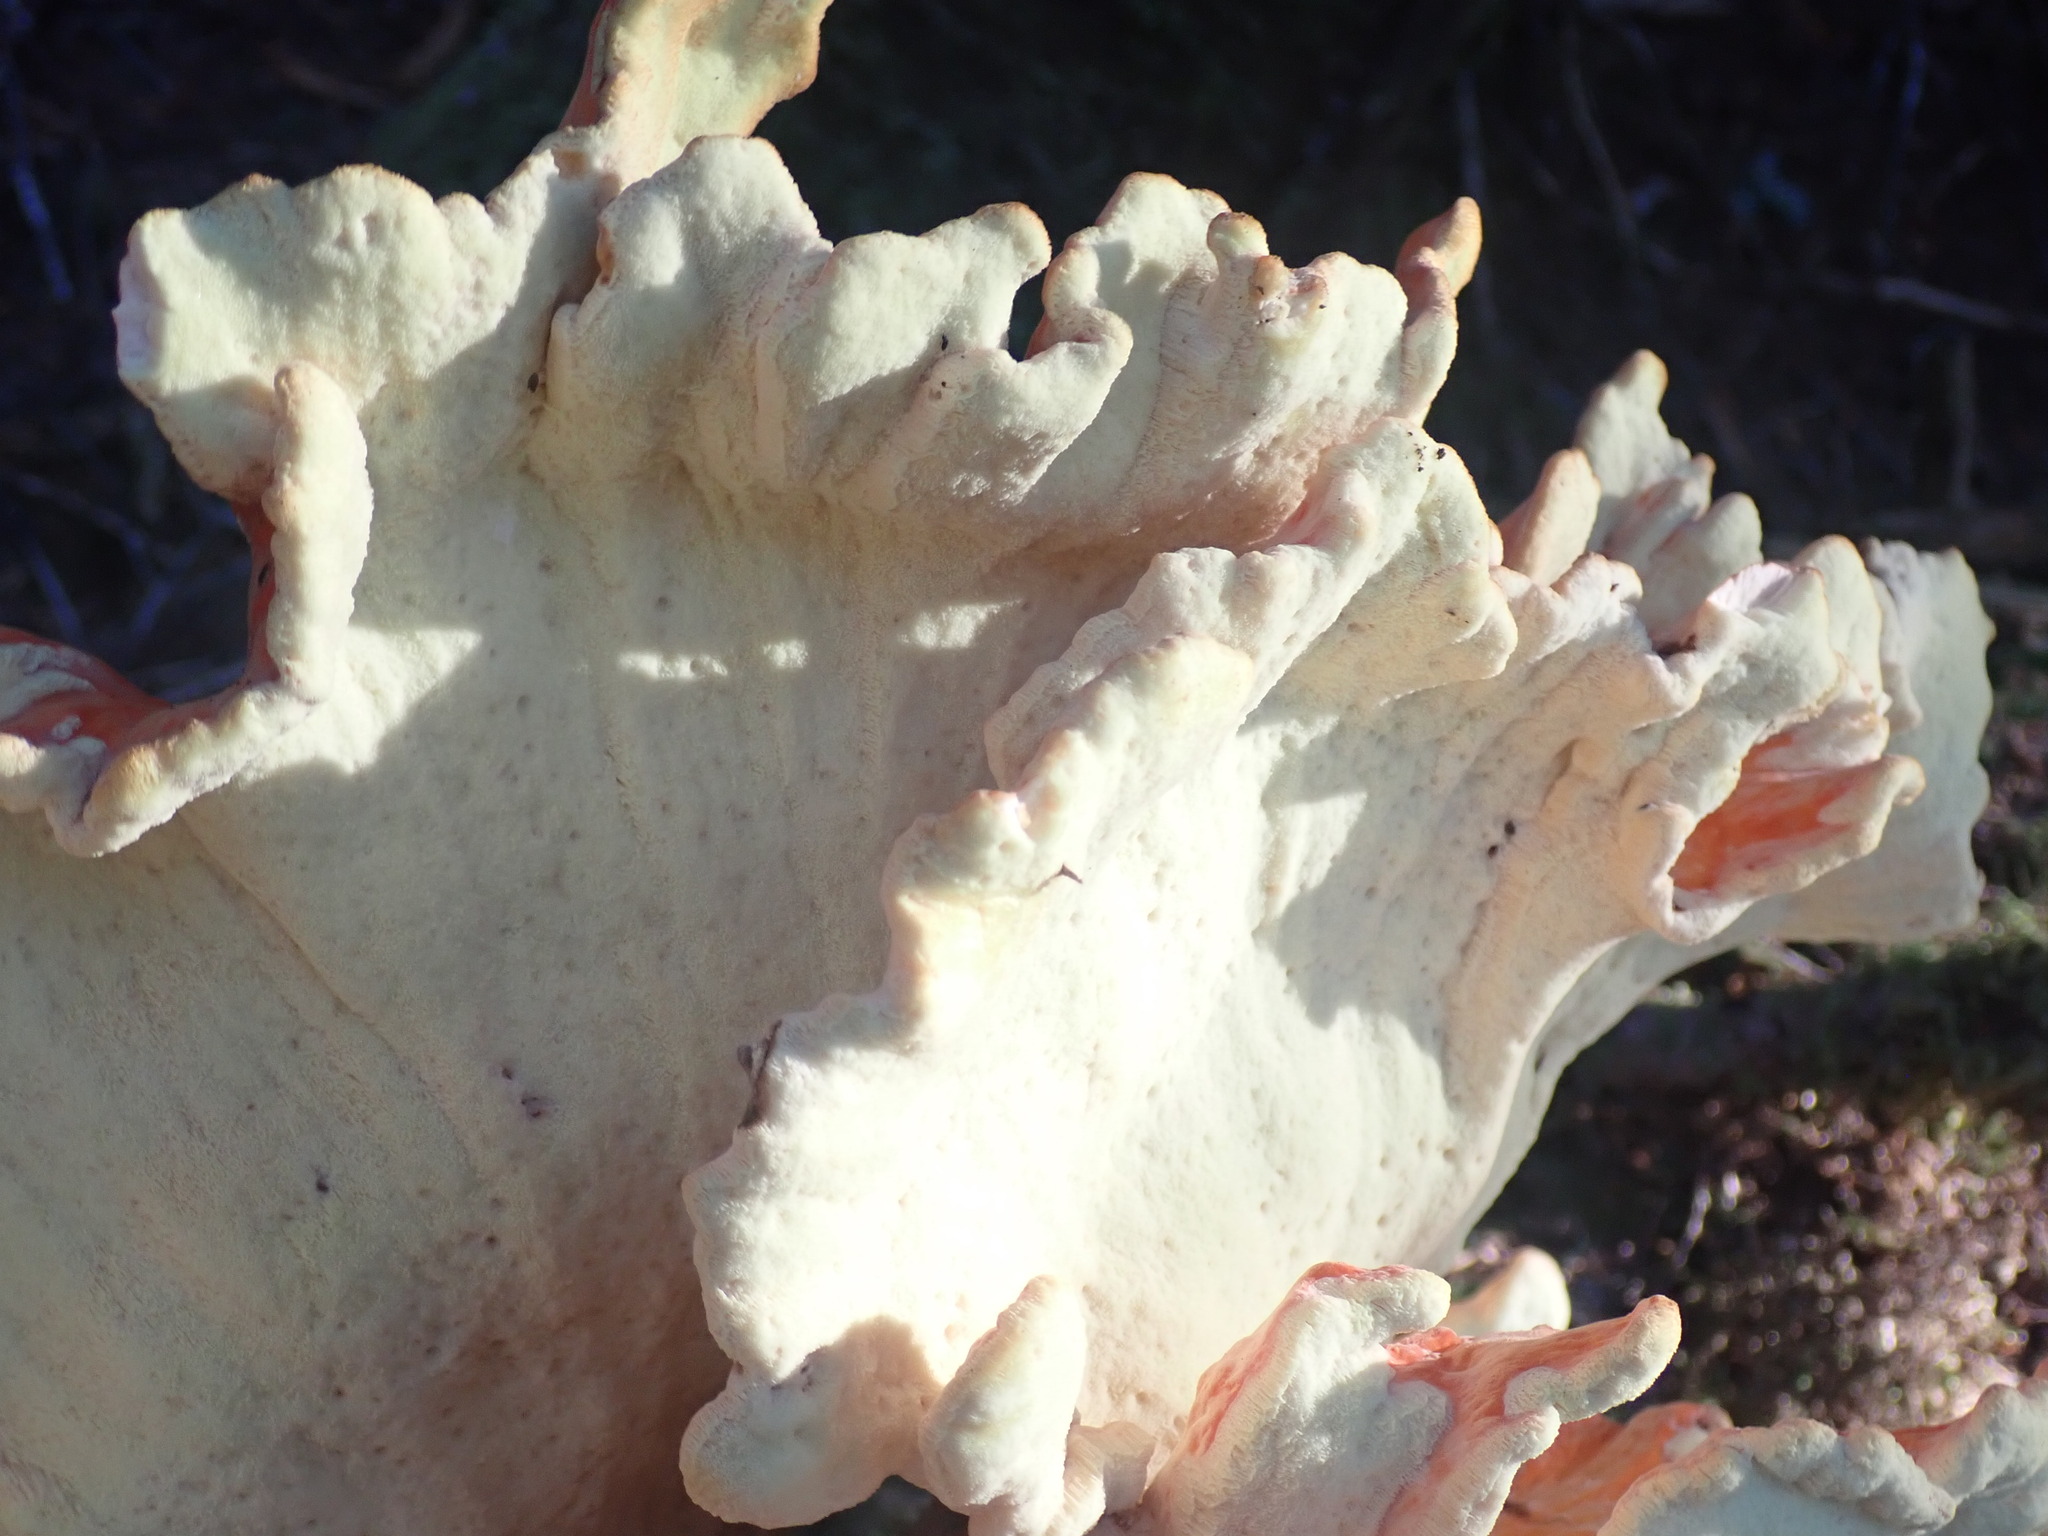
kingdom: Fungi
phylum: Basidiomycota
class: Agaricomycetes
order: Polyporales
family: Laetiporaceae
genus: Laetiporus
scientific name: Laetiporus conifericola
